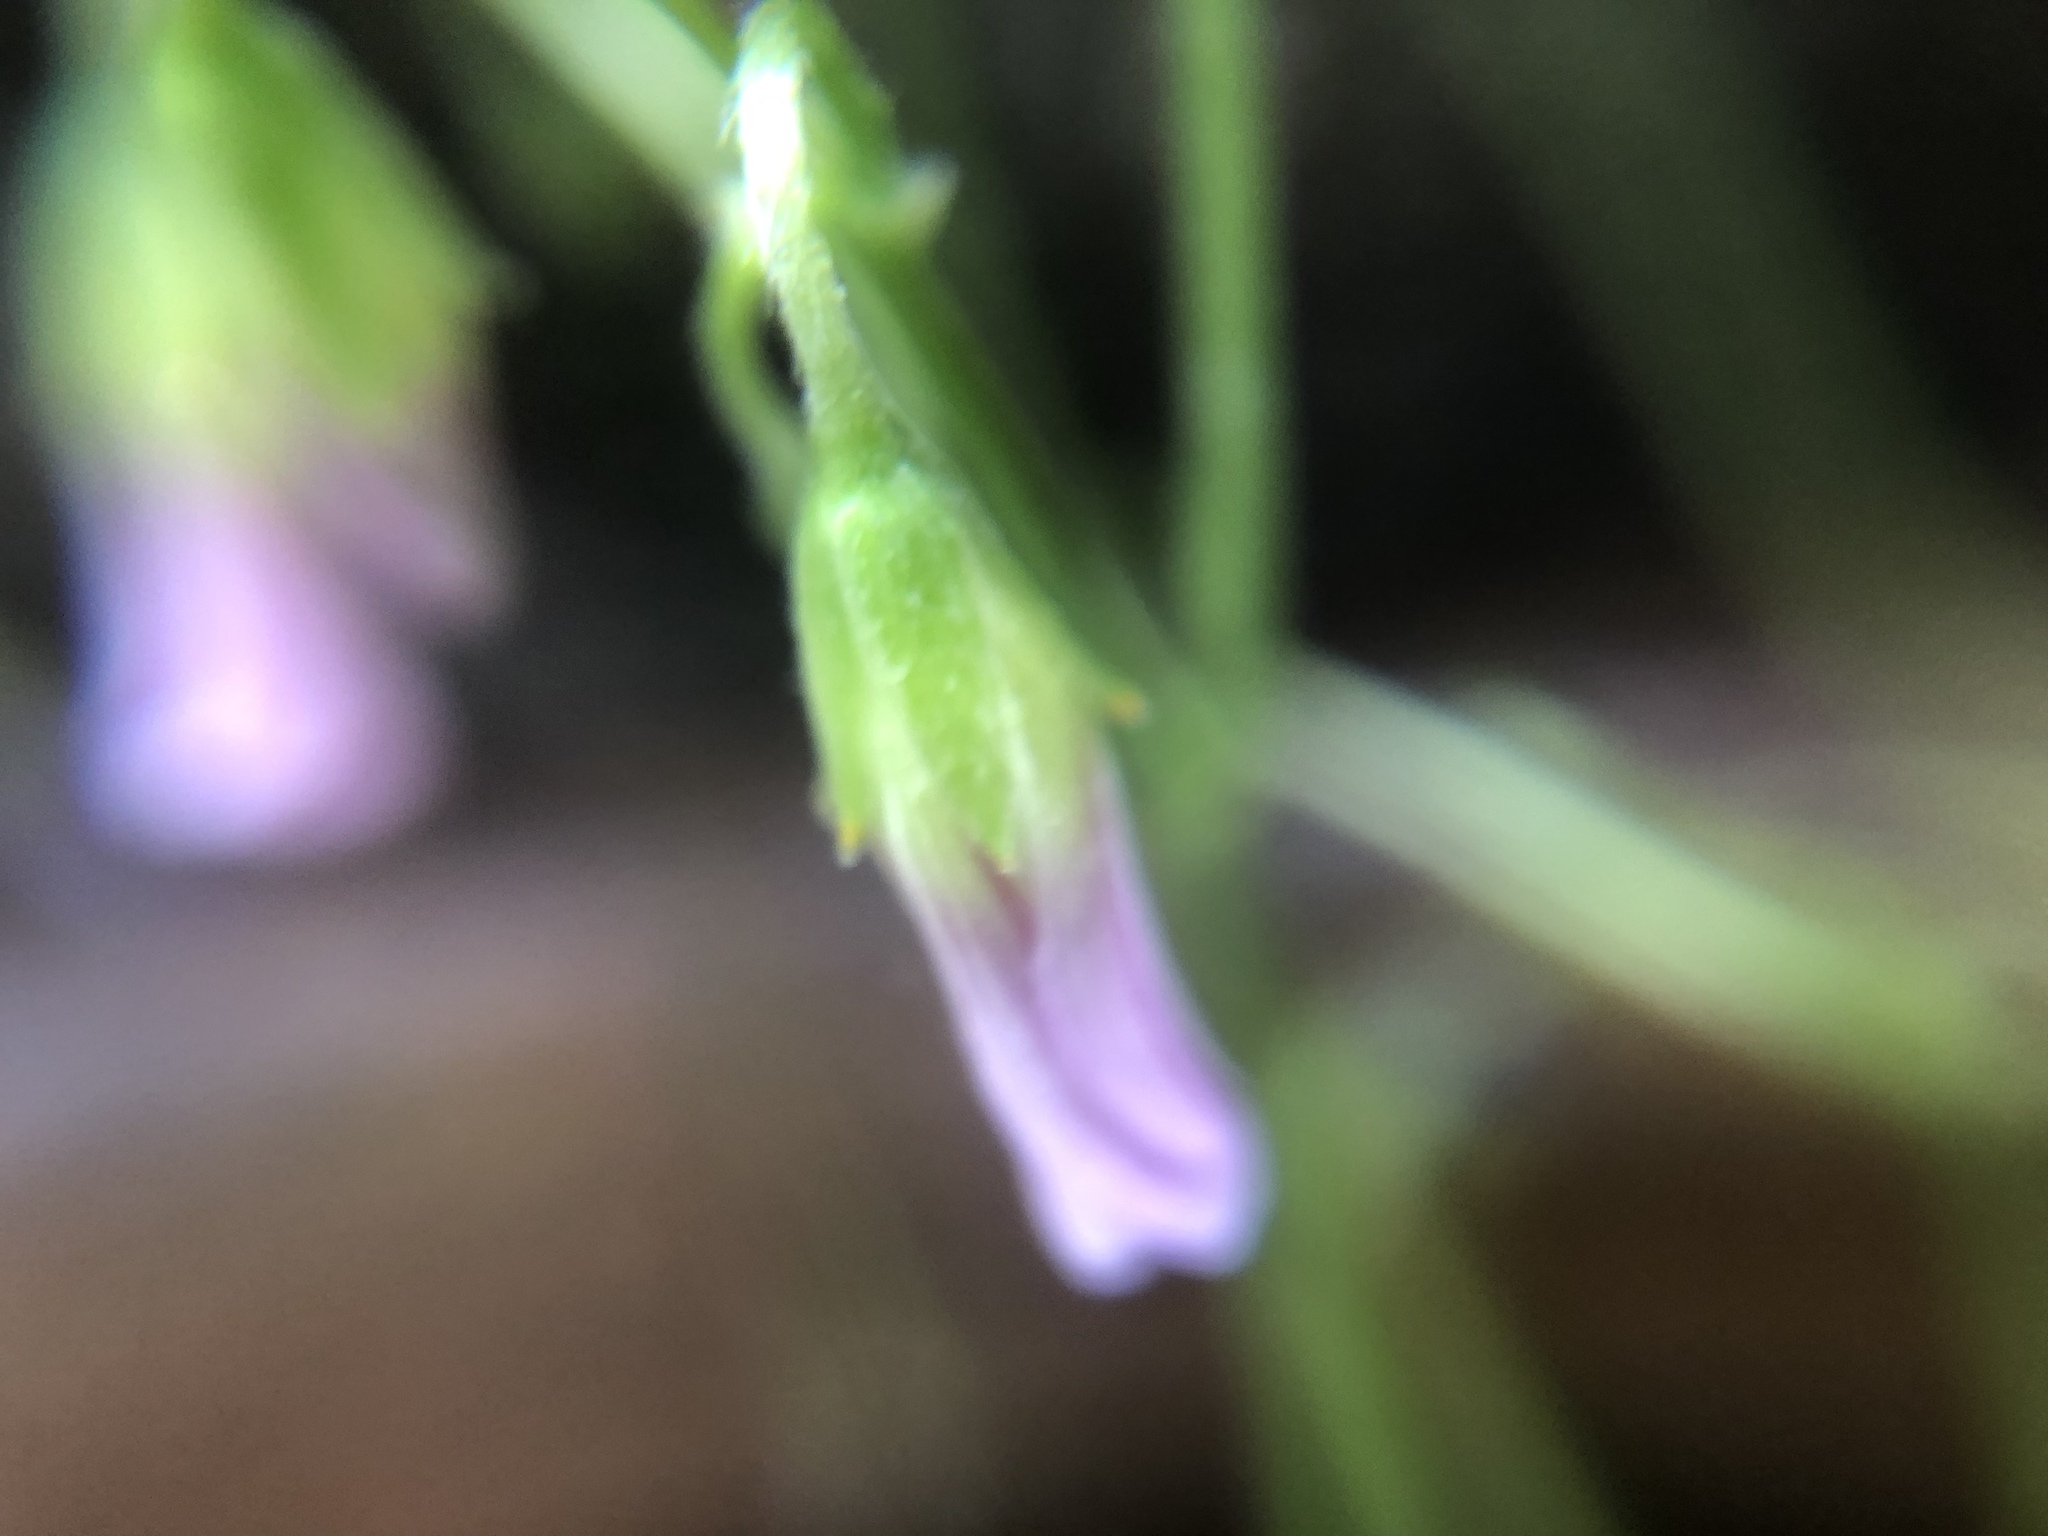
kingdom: Plantae
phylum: Tracheophyta
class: Magnoliopsida
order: Oxalidales
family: Oxalidaceae
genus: Oxalis
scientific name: Oxalis debilis
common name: Large-flowered pink-sorrel
